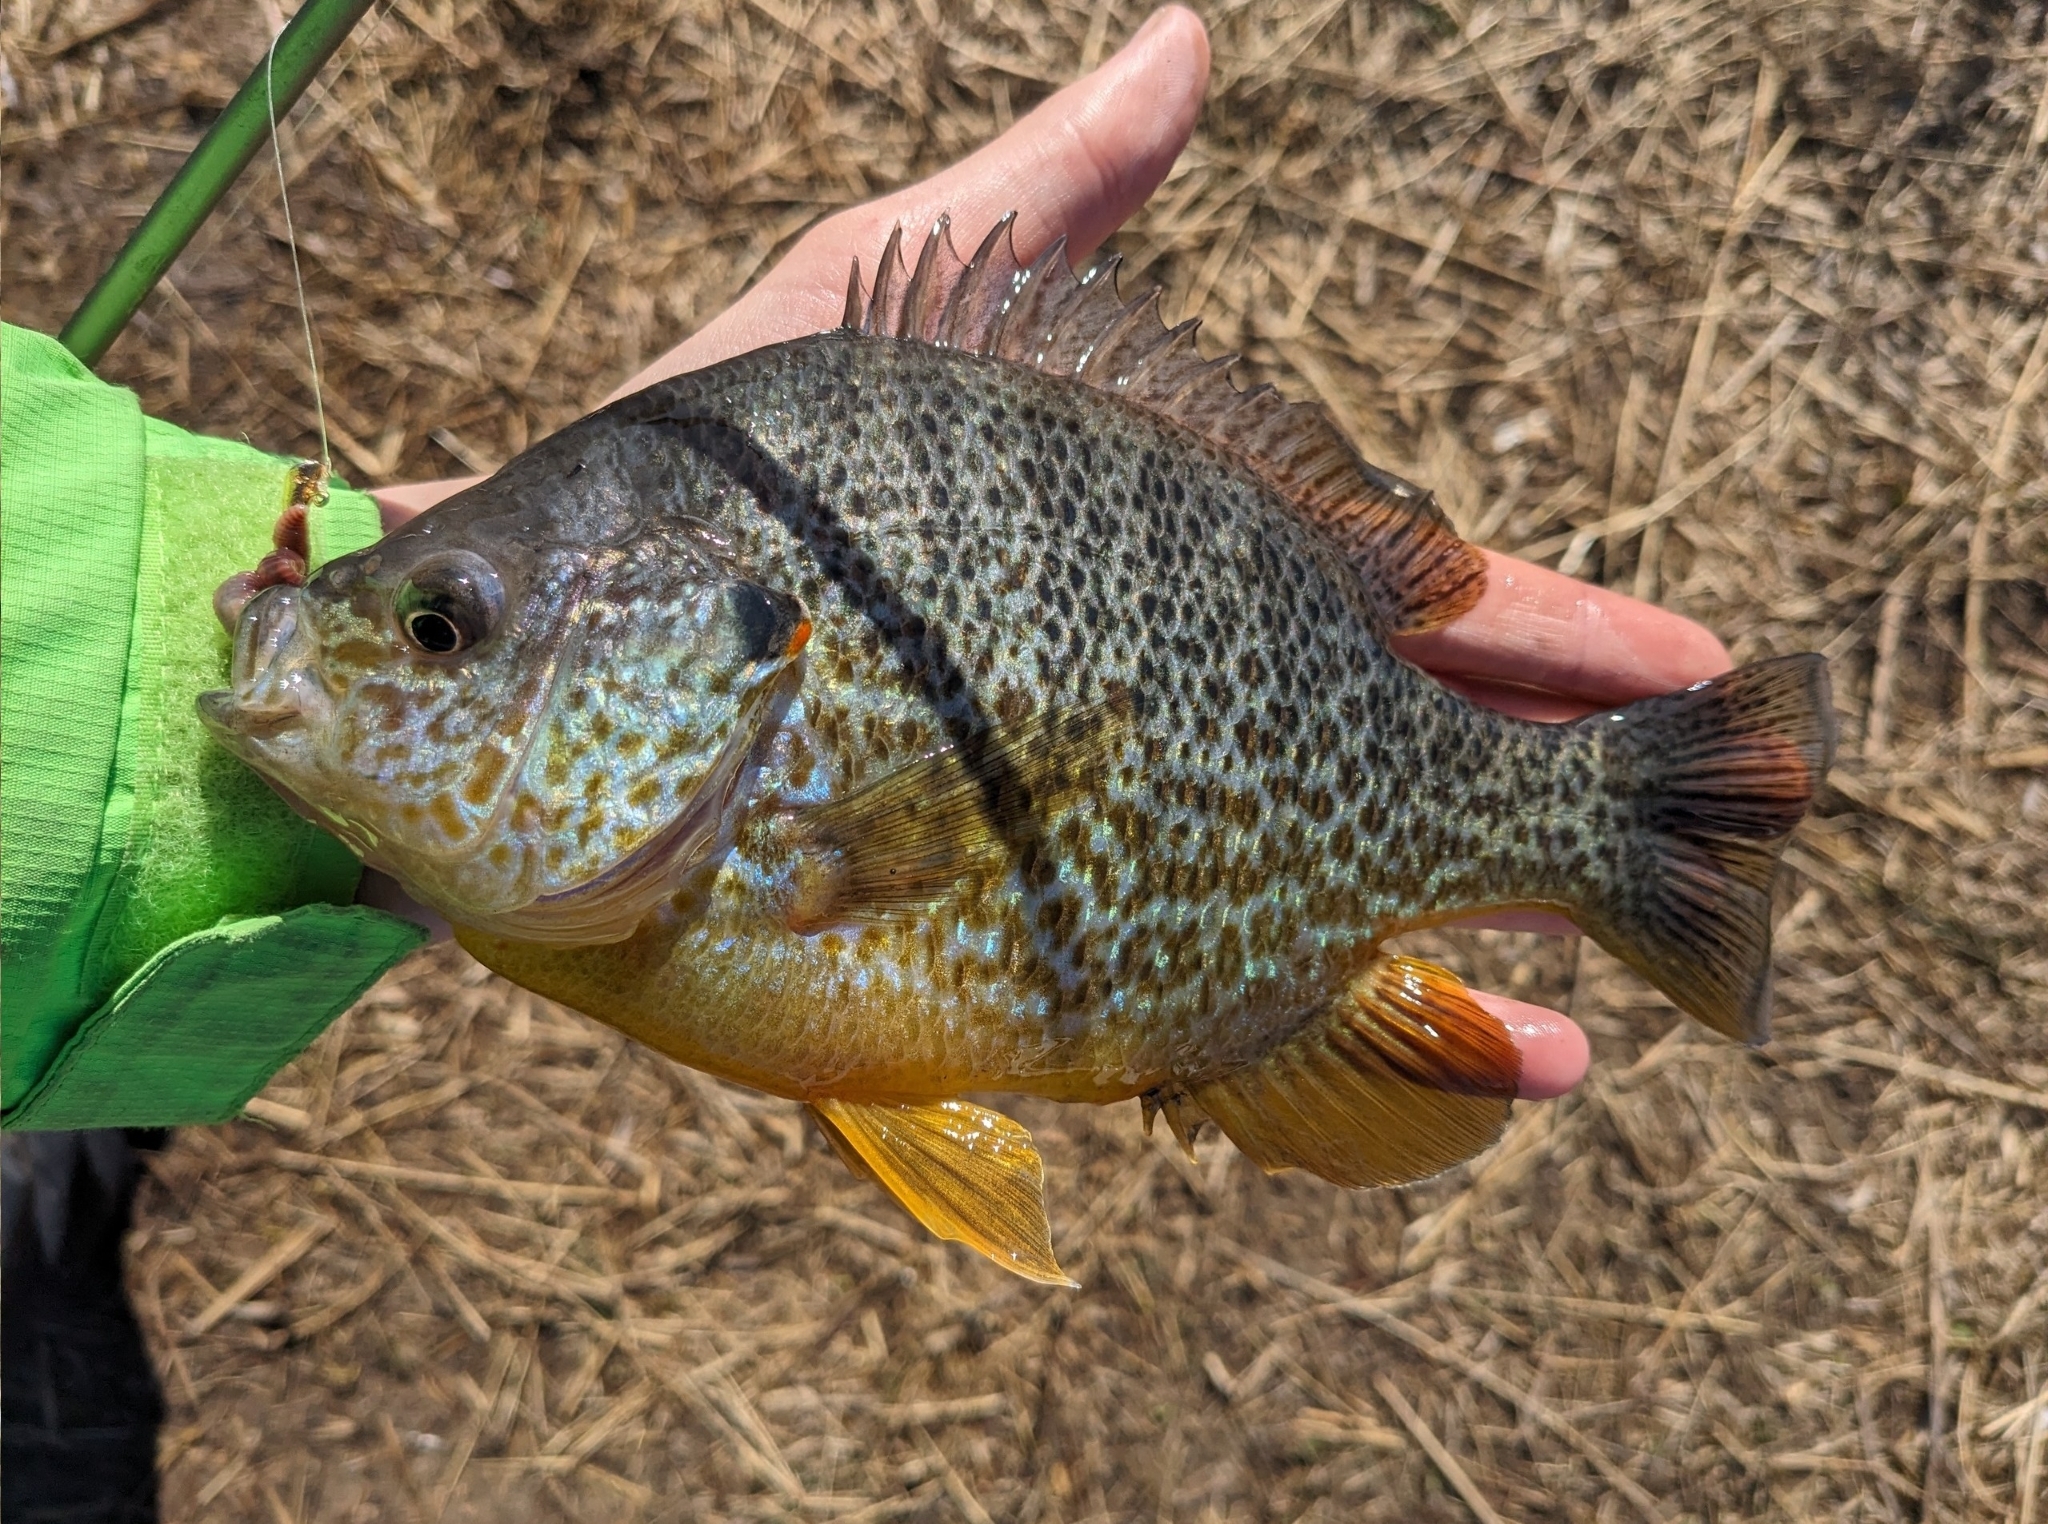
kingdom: Animalia
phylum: Chordata
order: Perciformes
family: Centrarchidae
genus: Lepomis
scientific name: Lepomis gibbosus
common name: Pumpkinseed
